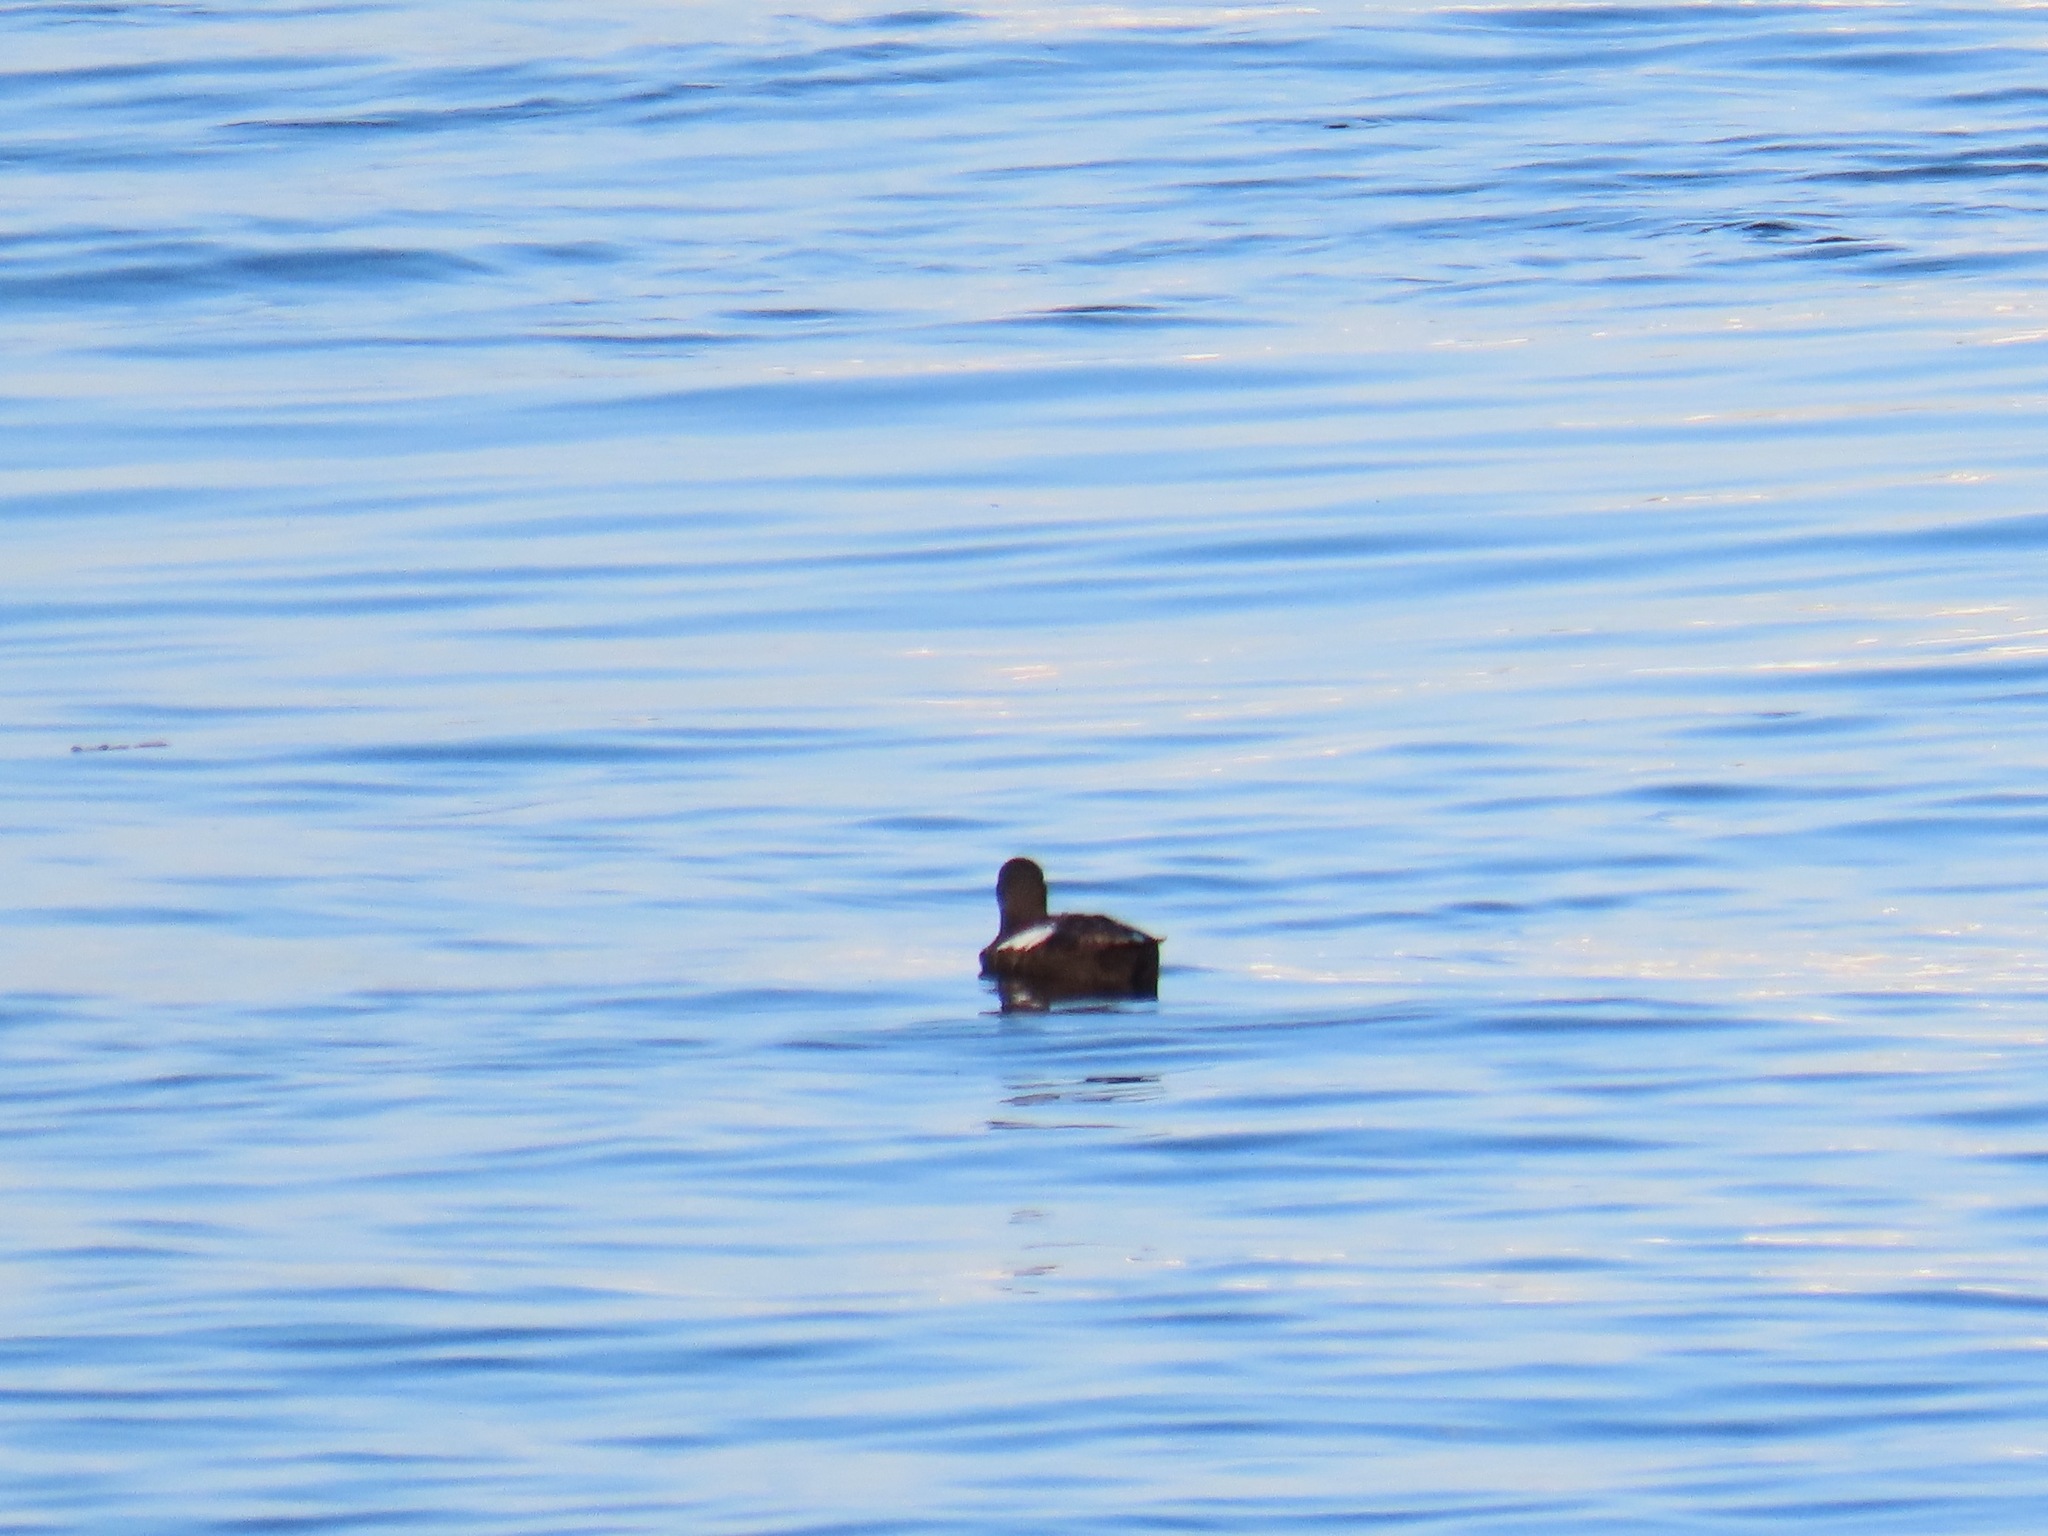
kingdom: Animalia
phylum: Chordata
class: Aves
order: Charadriiformes
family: Alcidae
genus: Cepphus
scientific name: Cepphus columba
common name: Pigeon guillemot
